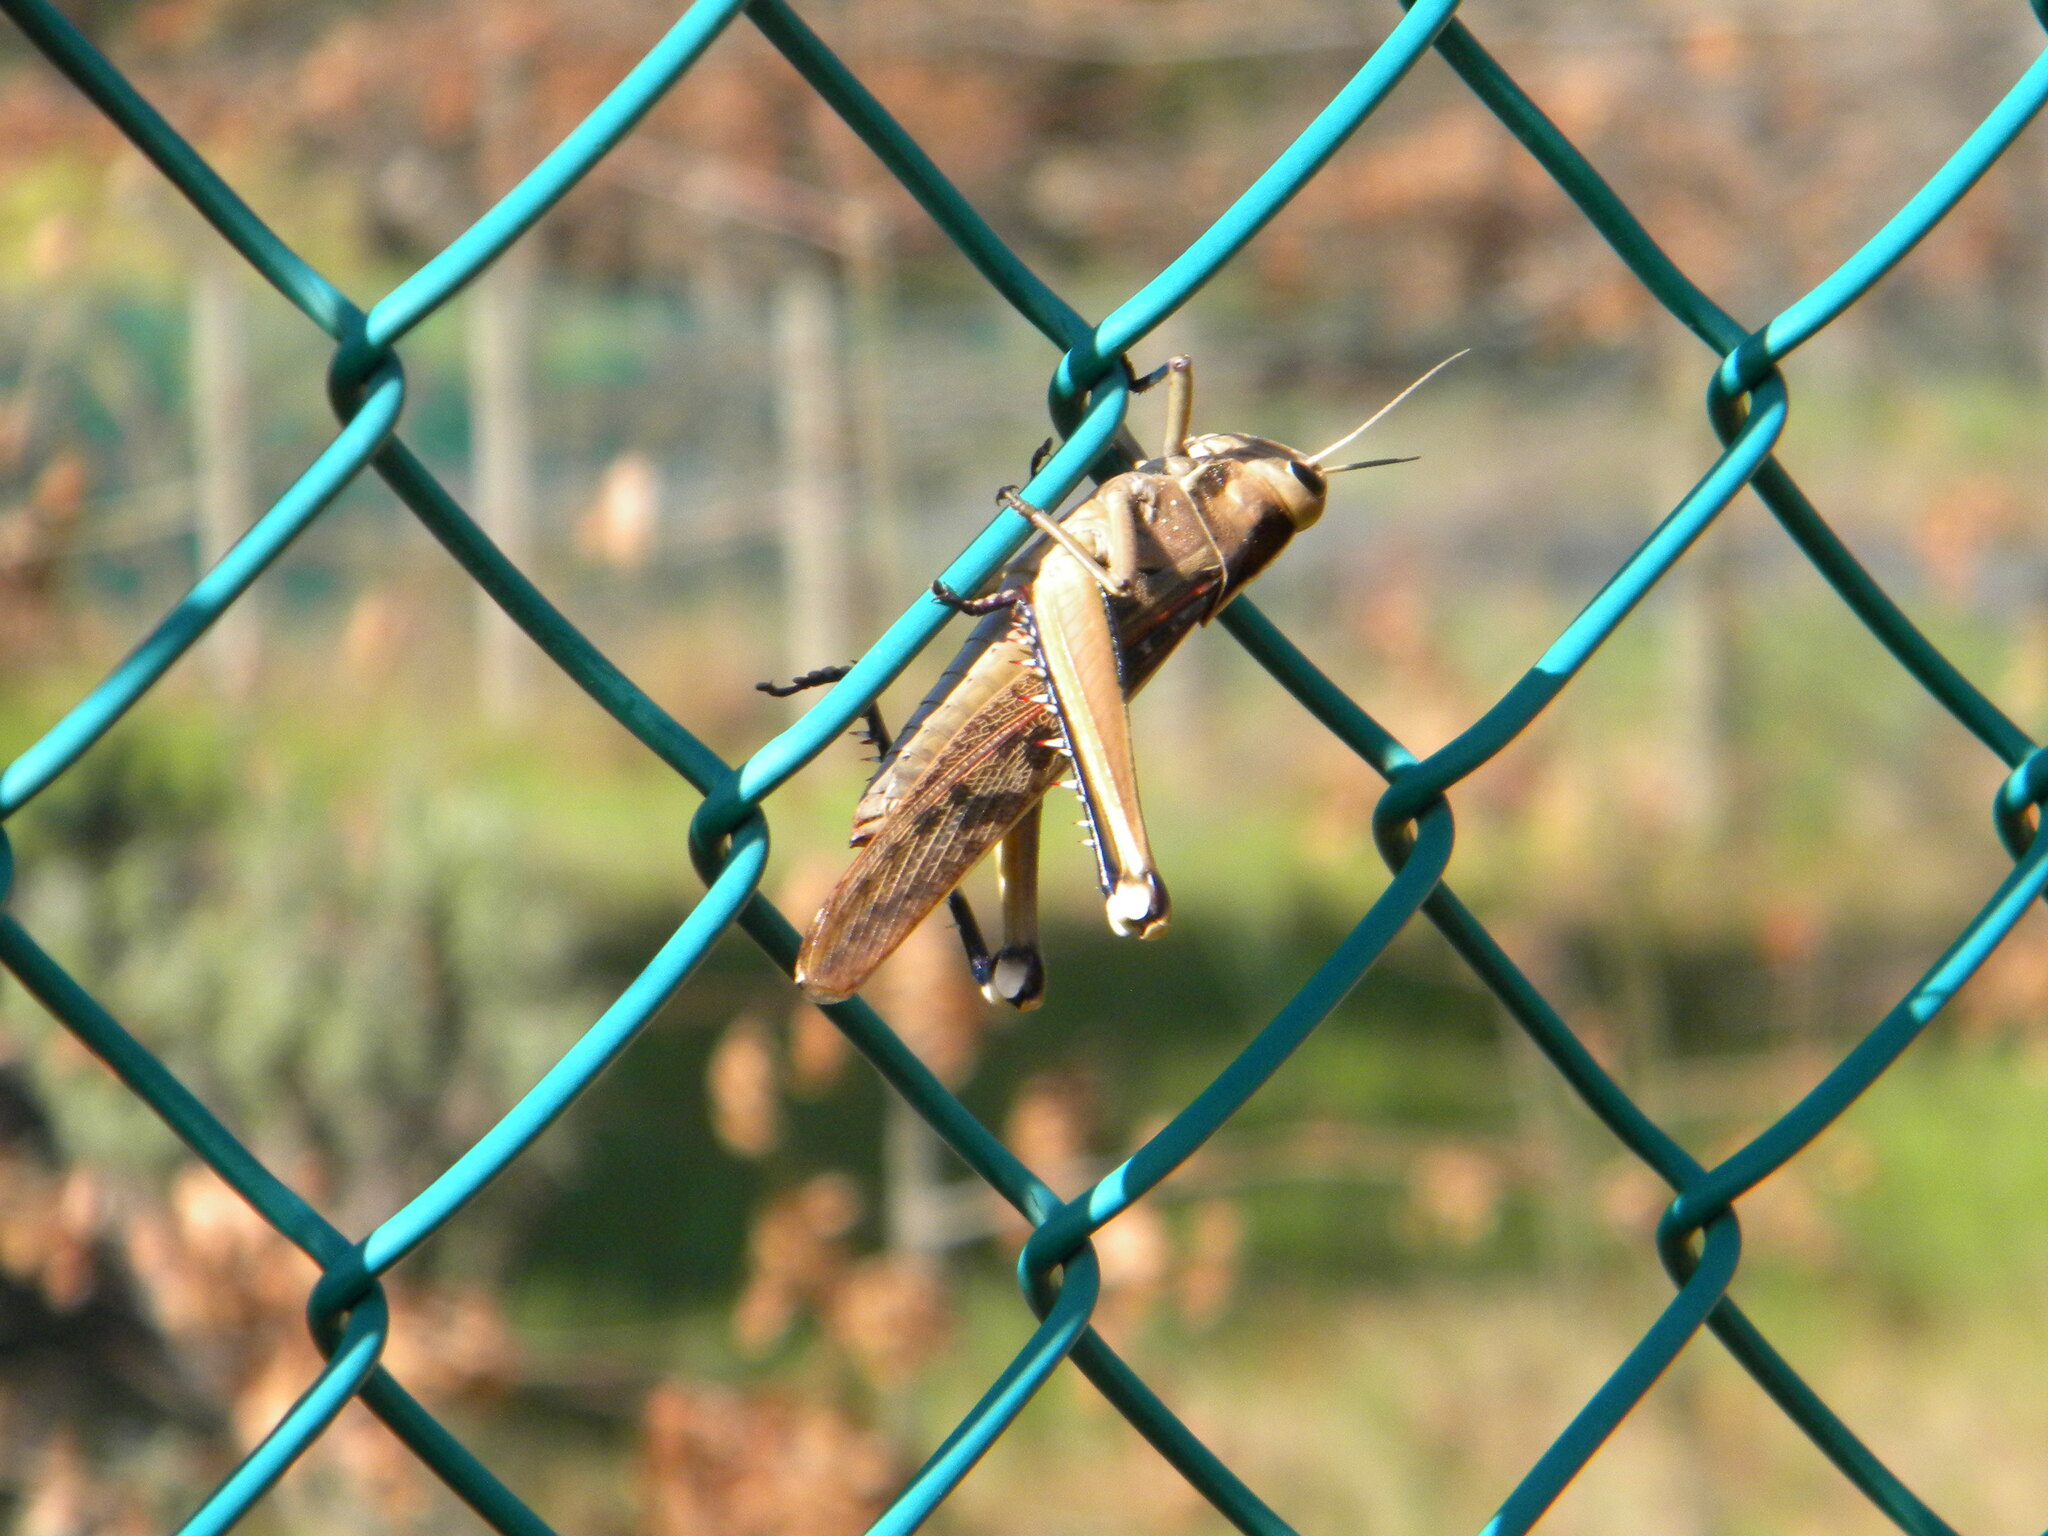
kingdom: Animalia
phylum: Arthropoda
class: Insecta
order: Orthoptera
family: Acrididae
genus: Acanthacris
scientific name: Acanthacris ruficornis
